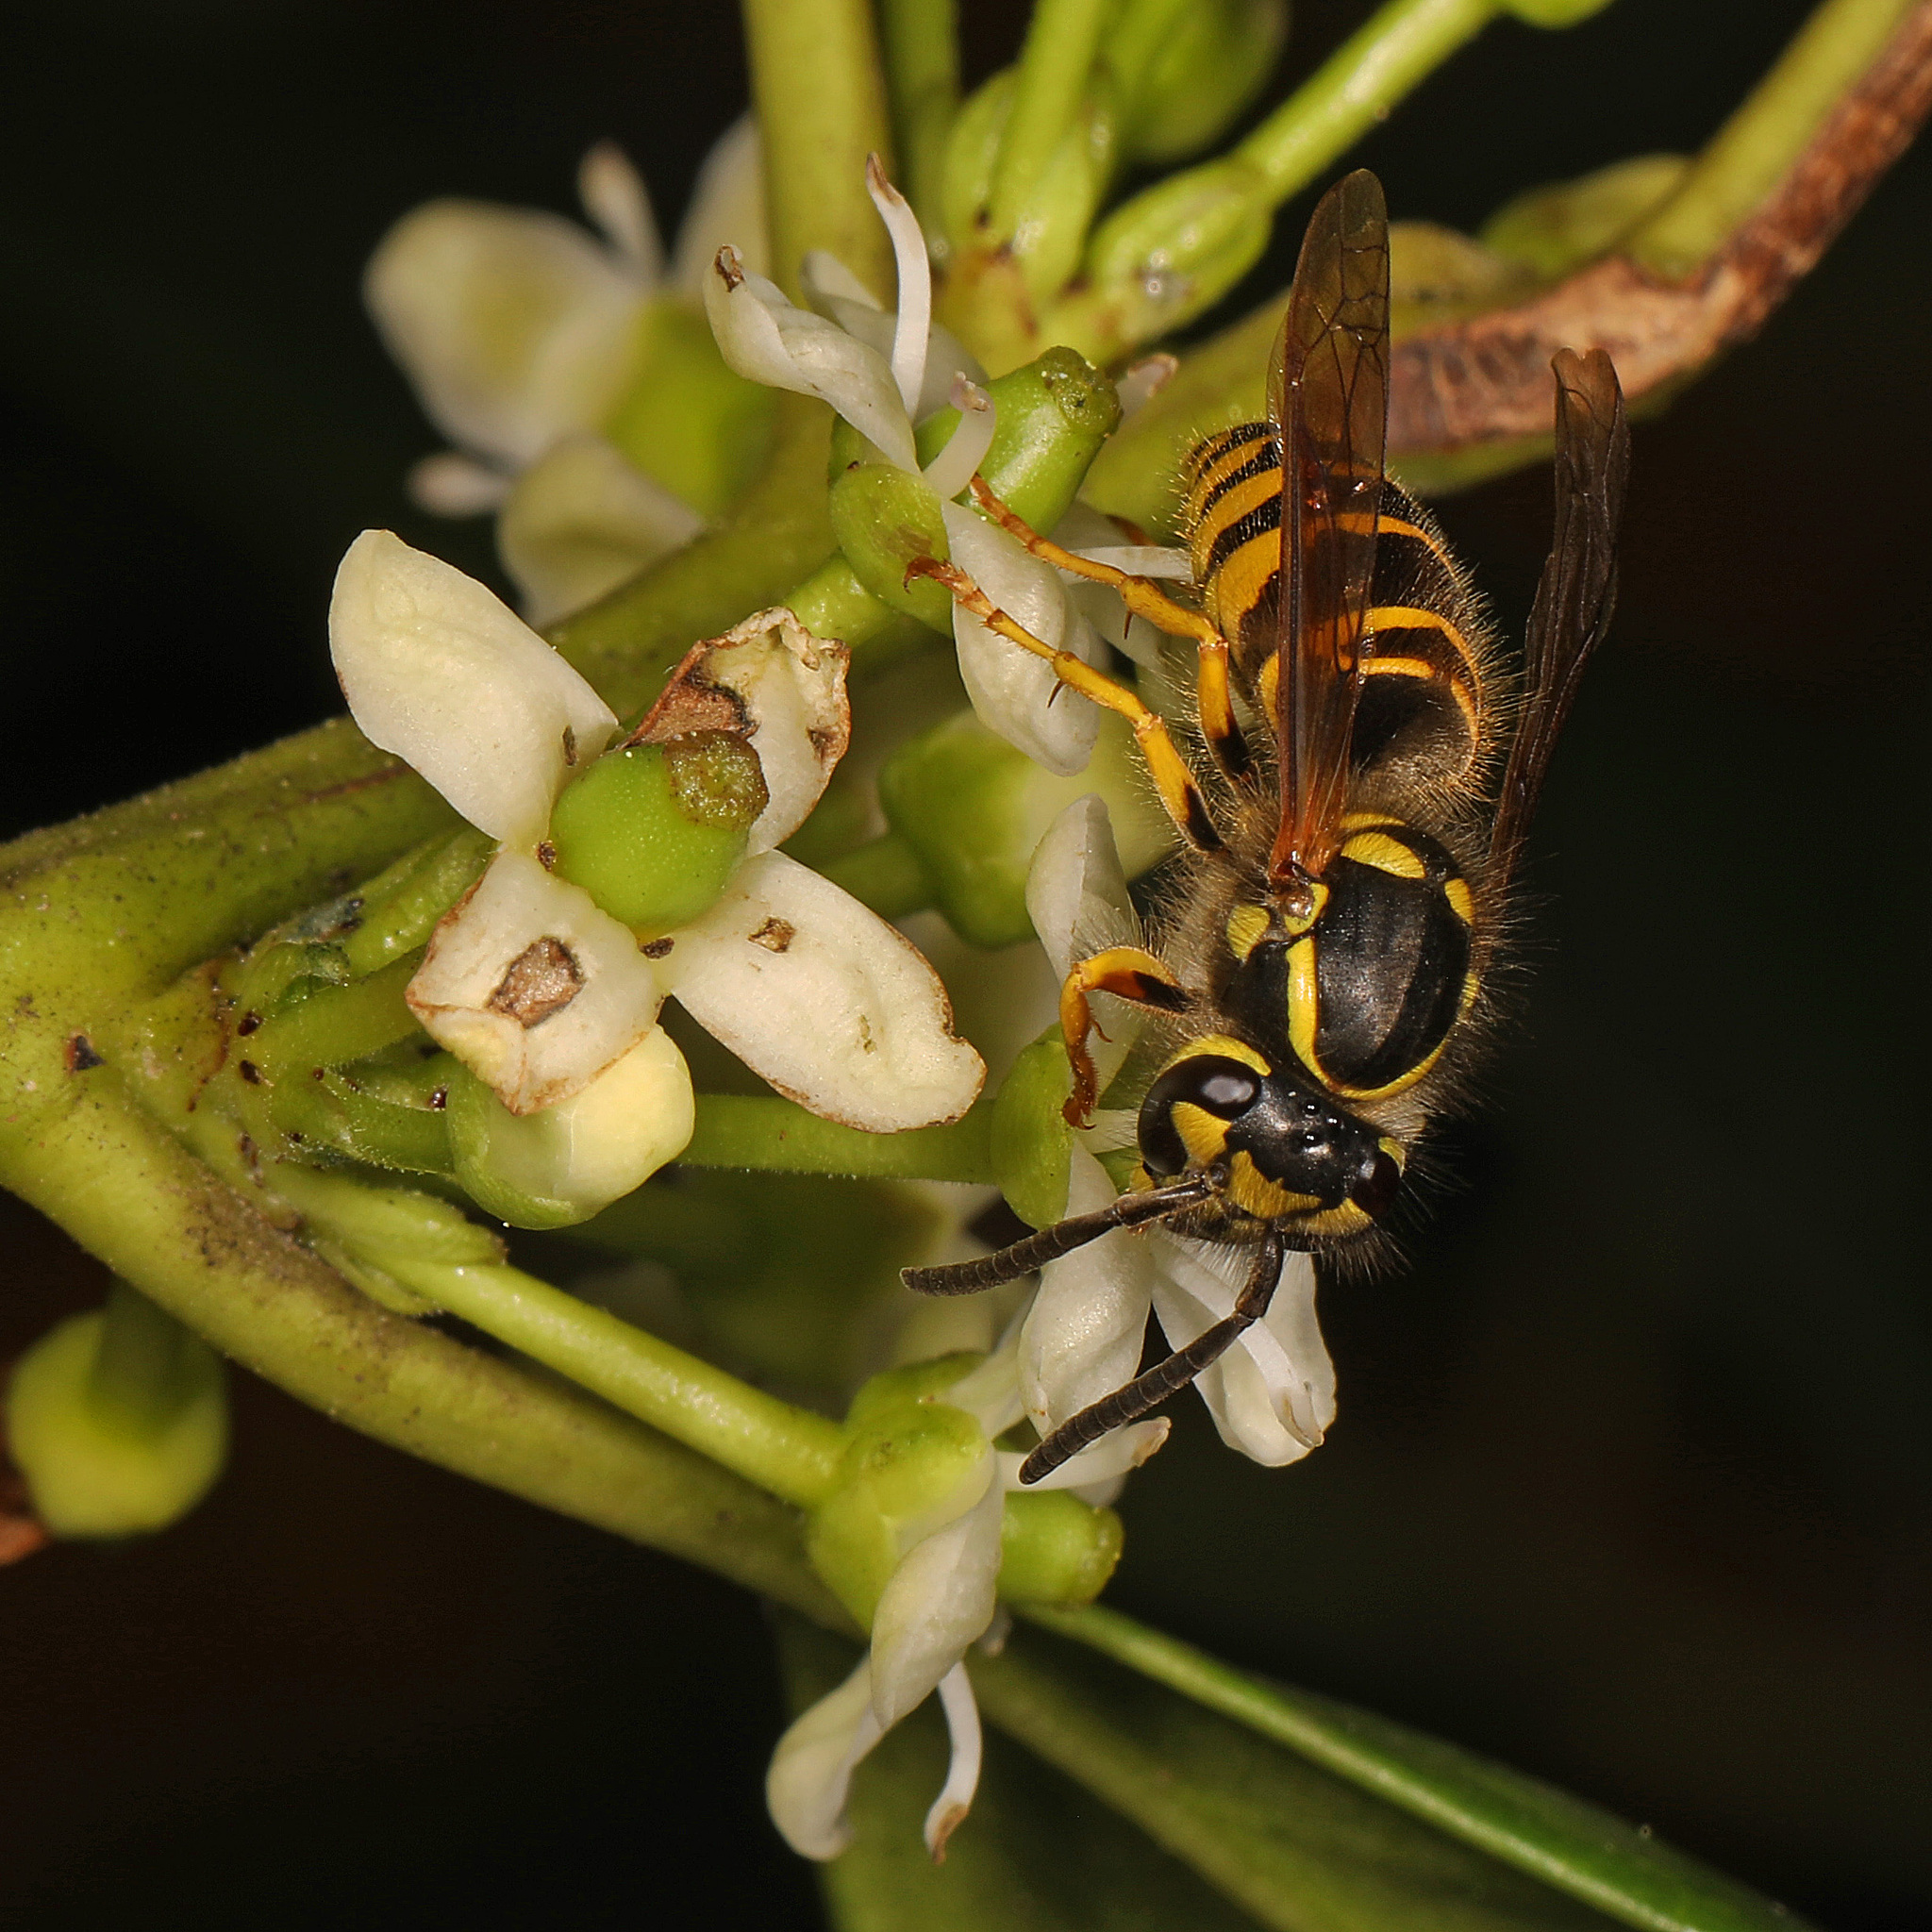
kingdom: Animalia
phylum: Arthropoda
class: Insecta
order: Hymenoptera
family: Vespidae
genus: Vespula
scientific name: Vespula maculifrons
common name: Eastern yellowjacket
